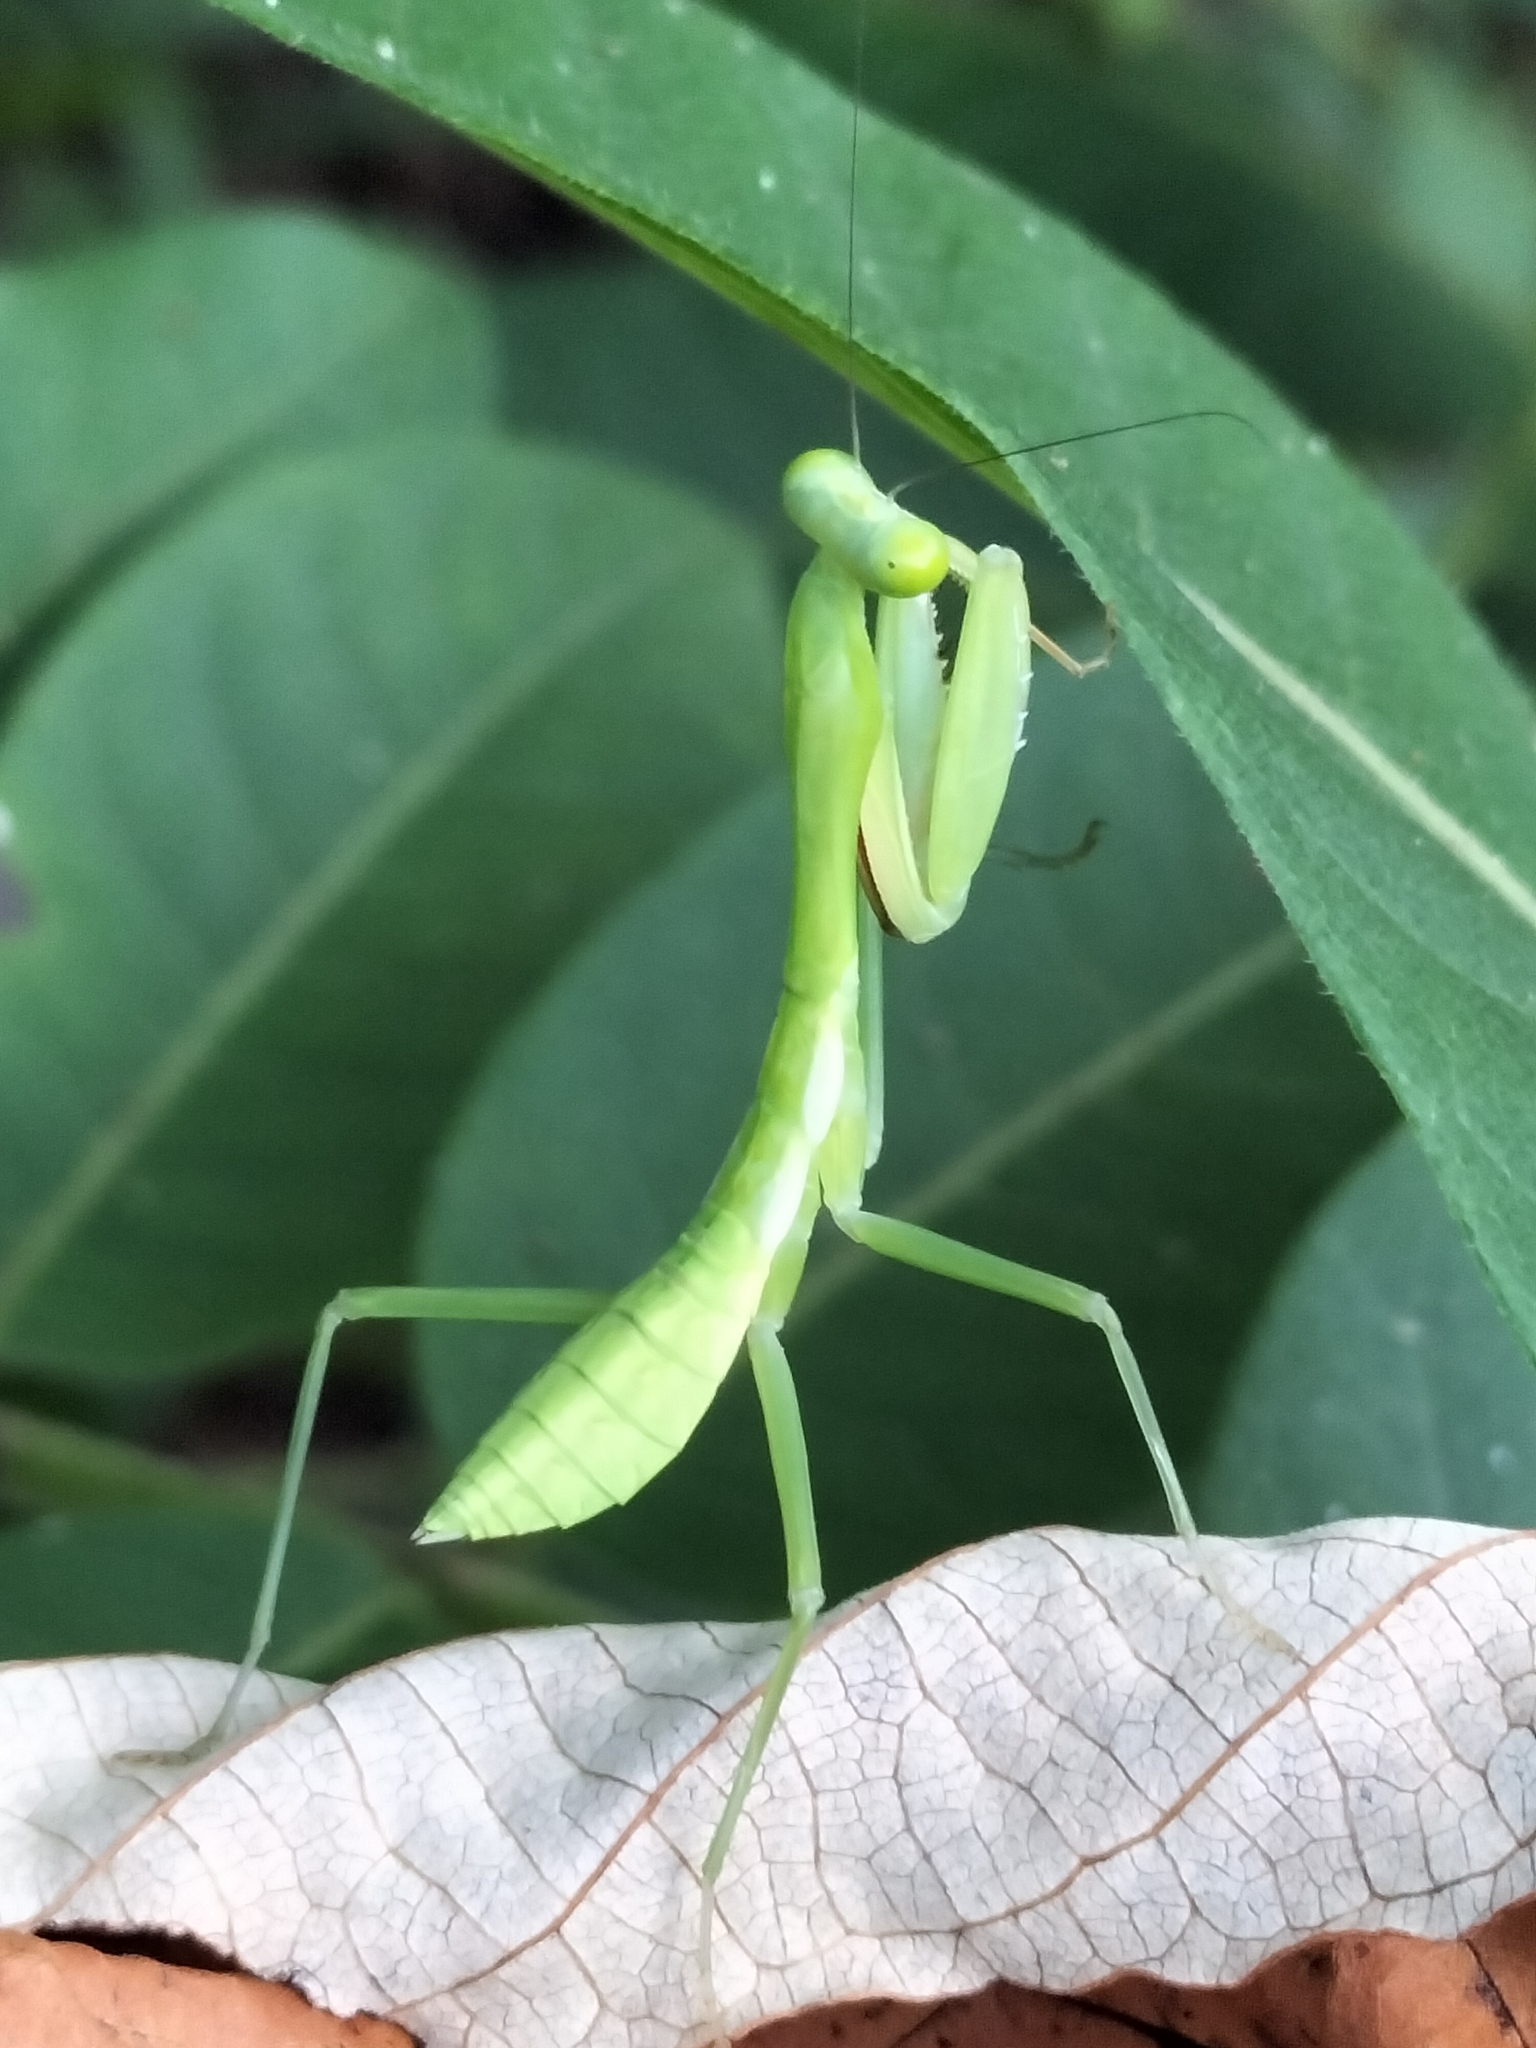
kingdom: Animalia
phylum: Arthropoda
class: Insecta
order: Mantodea
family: Mantidae
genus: Hierodula
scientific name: Hierodula majuscula
